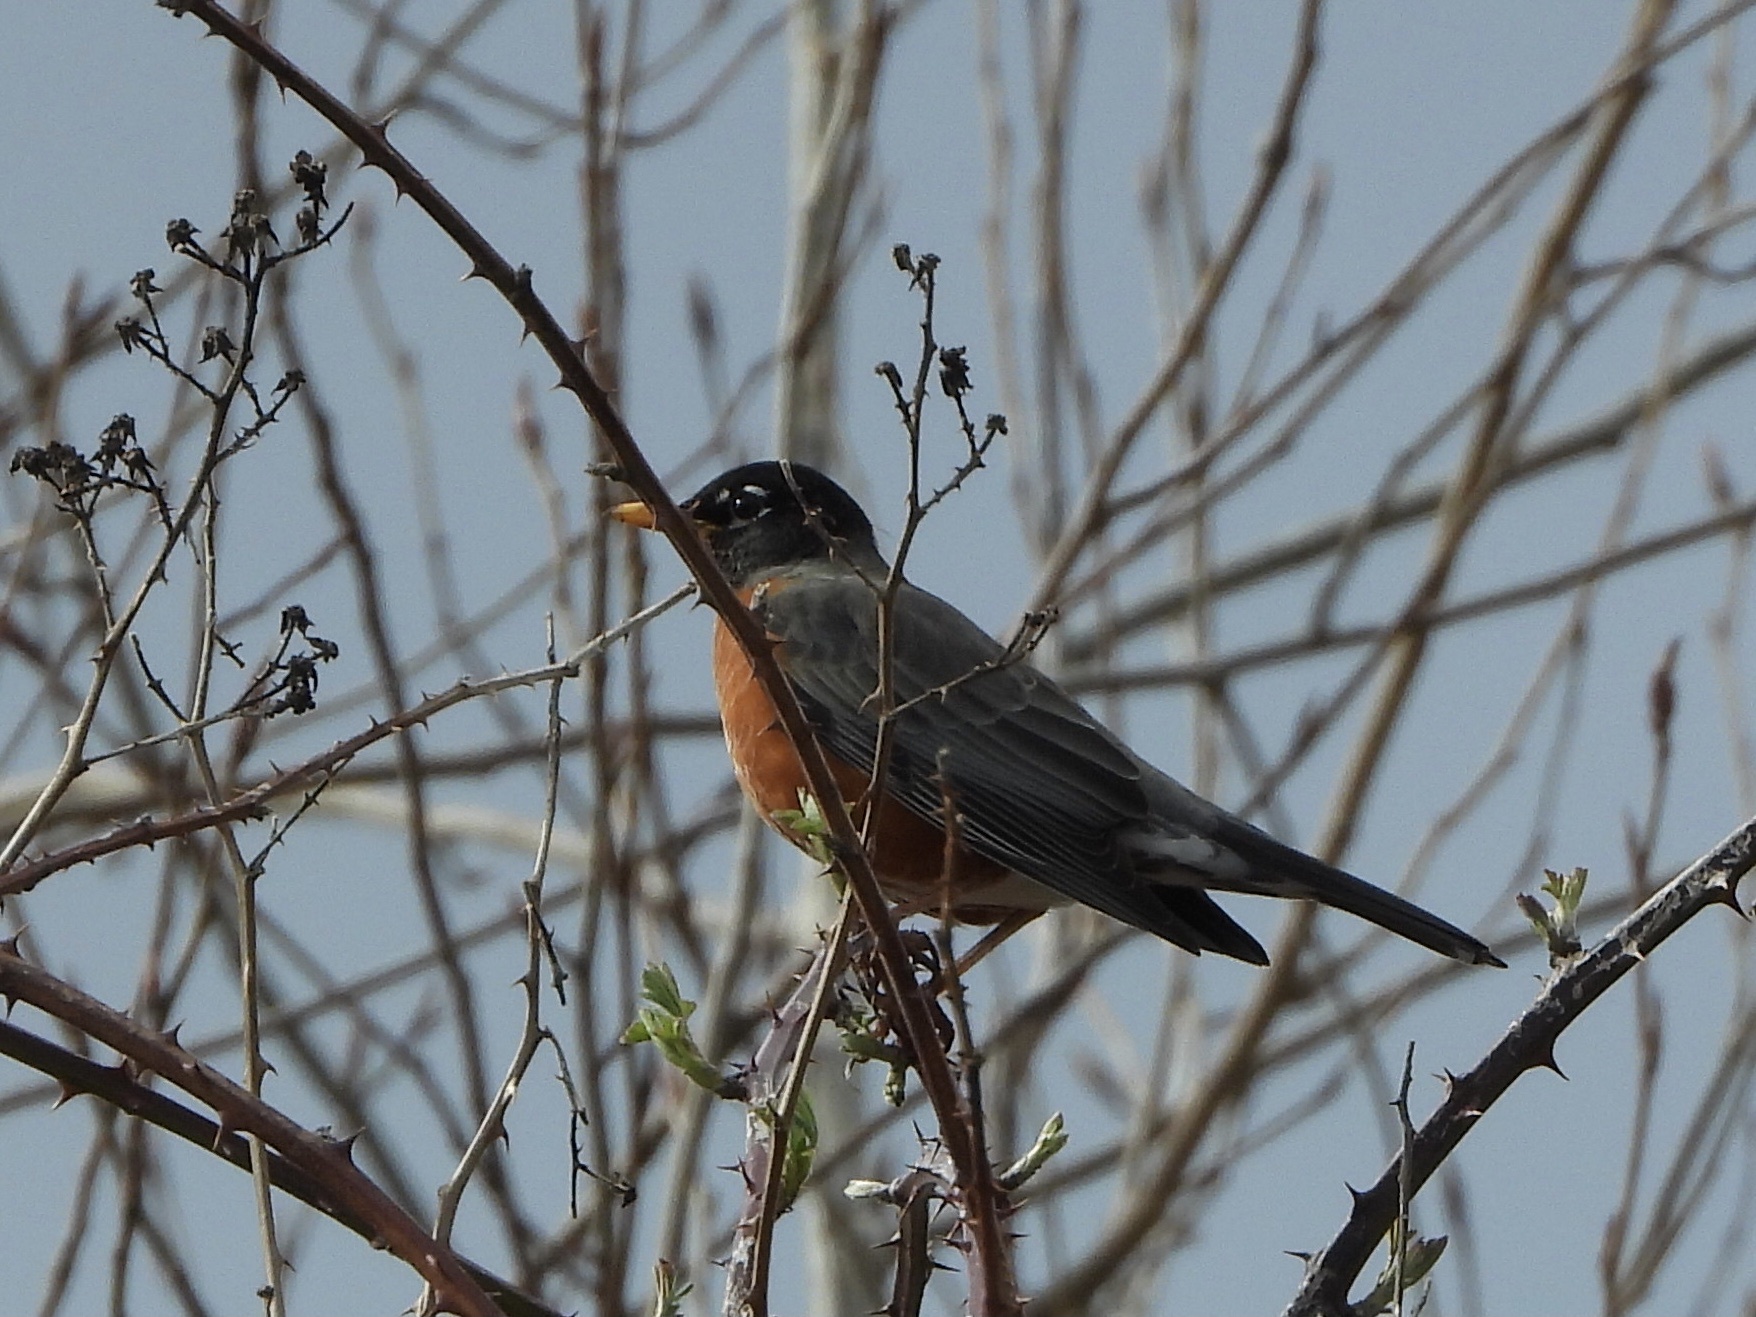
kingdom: Animalia
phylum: Chordata
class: Aves
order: Passeriformes
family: Turdidae
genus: Turdus
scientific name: Turdus migratorius
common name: American robin
